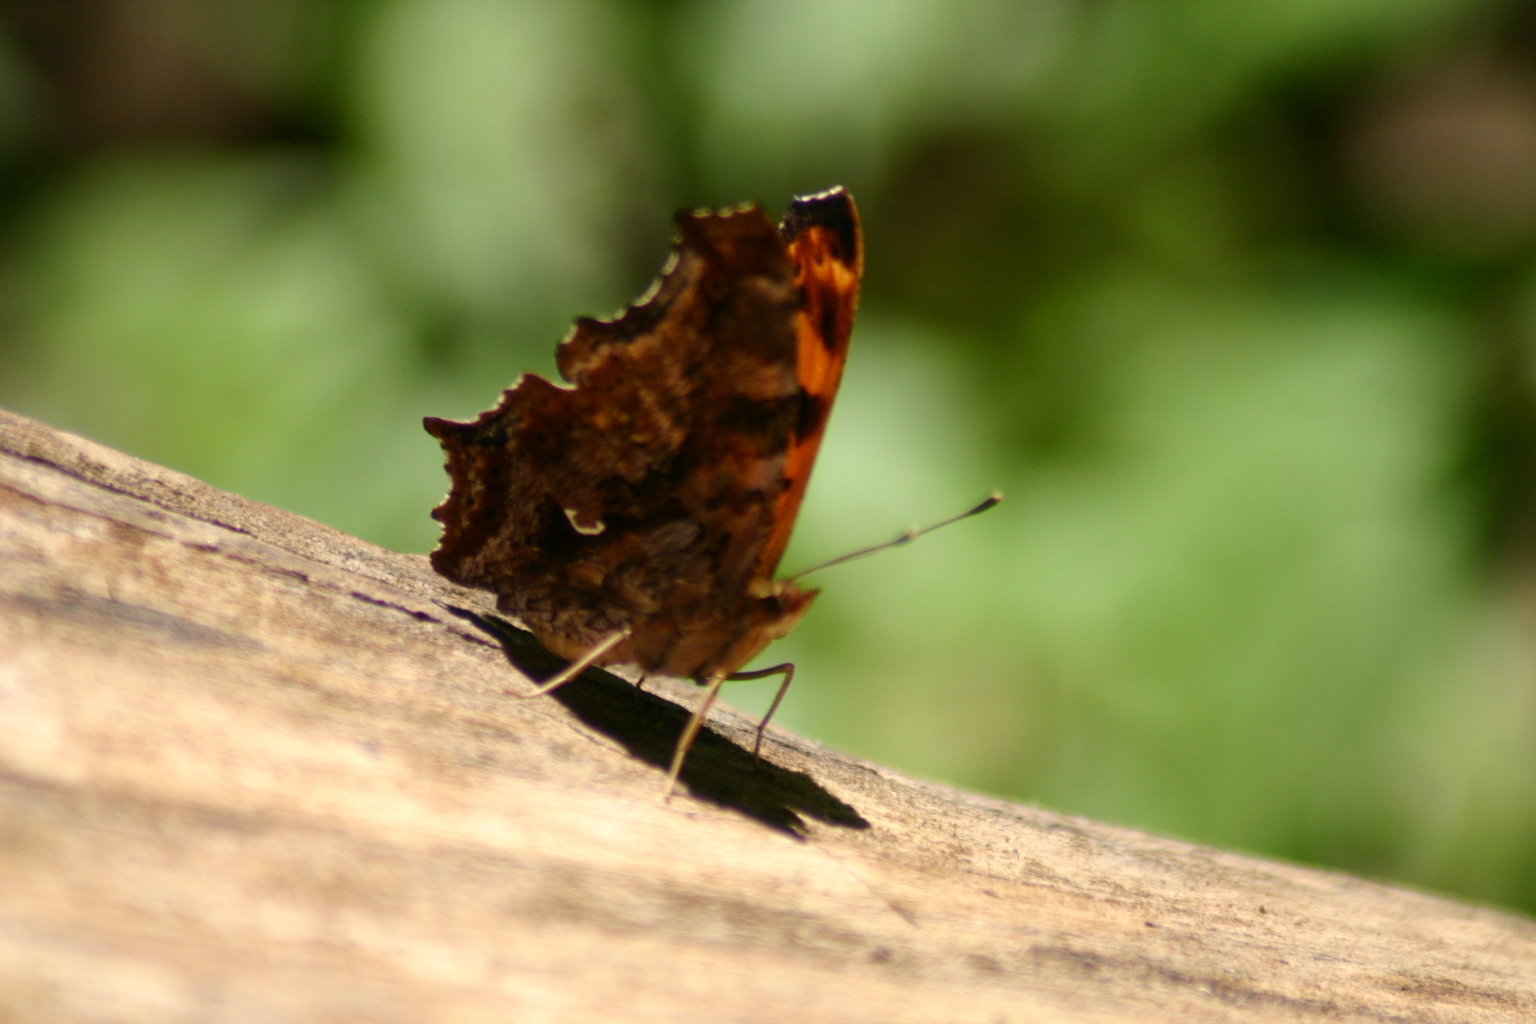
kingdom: Animalia
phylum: Arthropoda
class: Insecta
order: Lepidoptera
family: Nymphalidae
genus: Polygonia
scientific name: Polygonia comma
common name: Eastern comma
